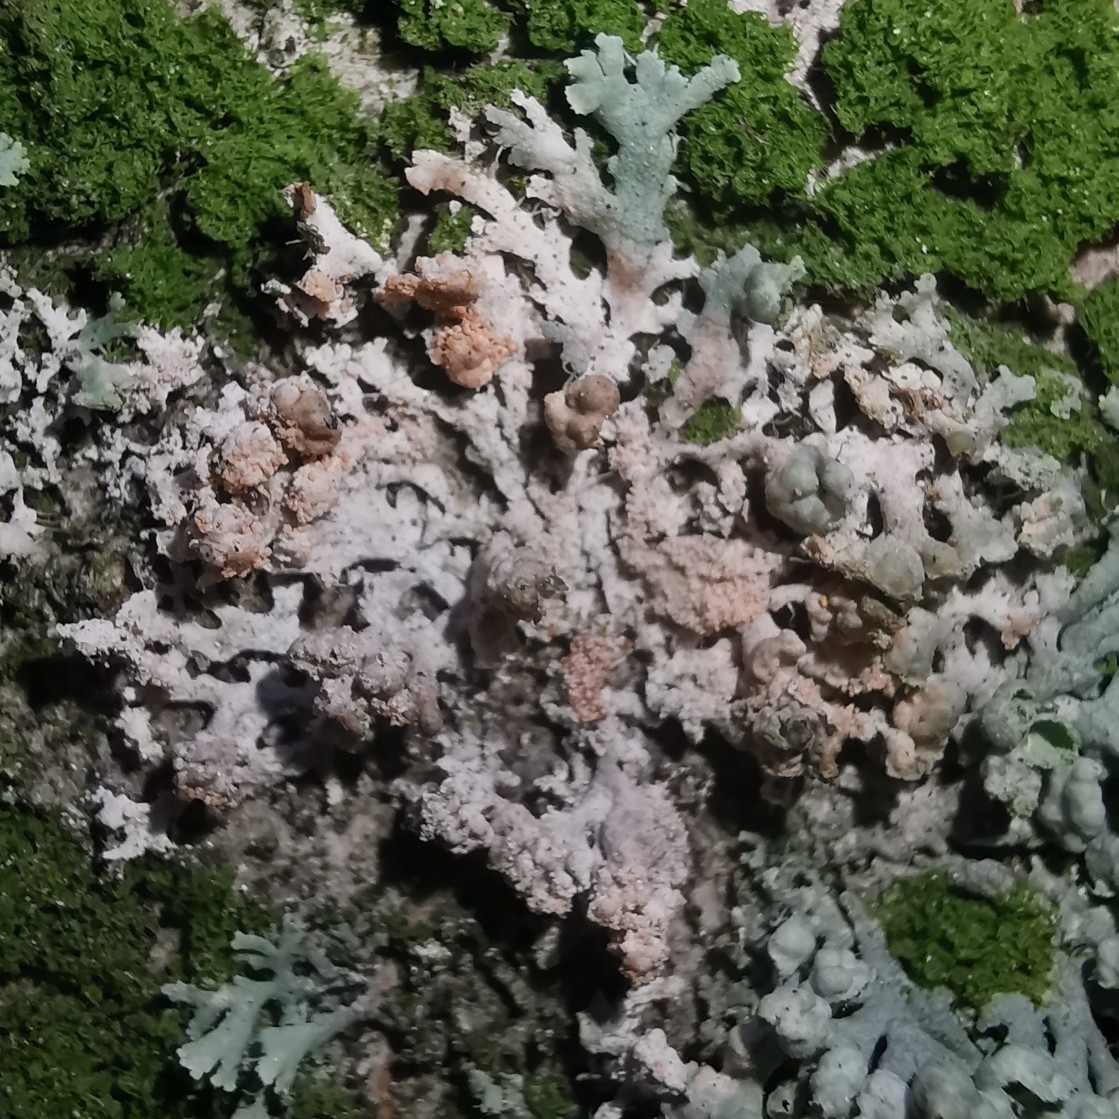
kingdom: Fungi
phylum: Basidiomycota
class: Agaricomycetes
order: Corticiales
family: Corticiaceae
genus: Erythricium
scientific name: Erythricium aurantiacum
